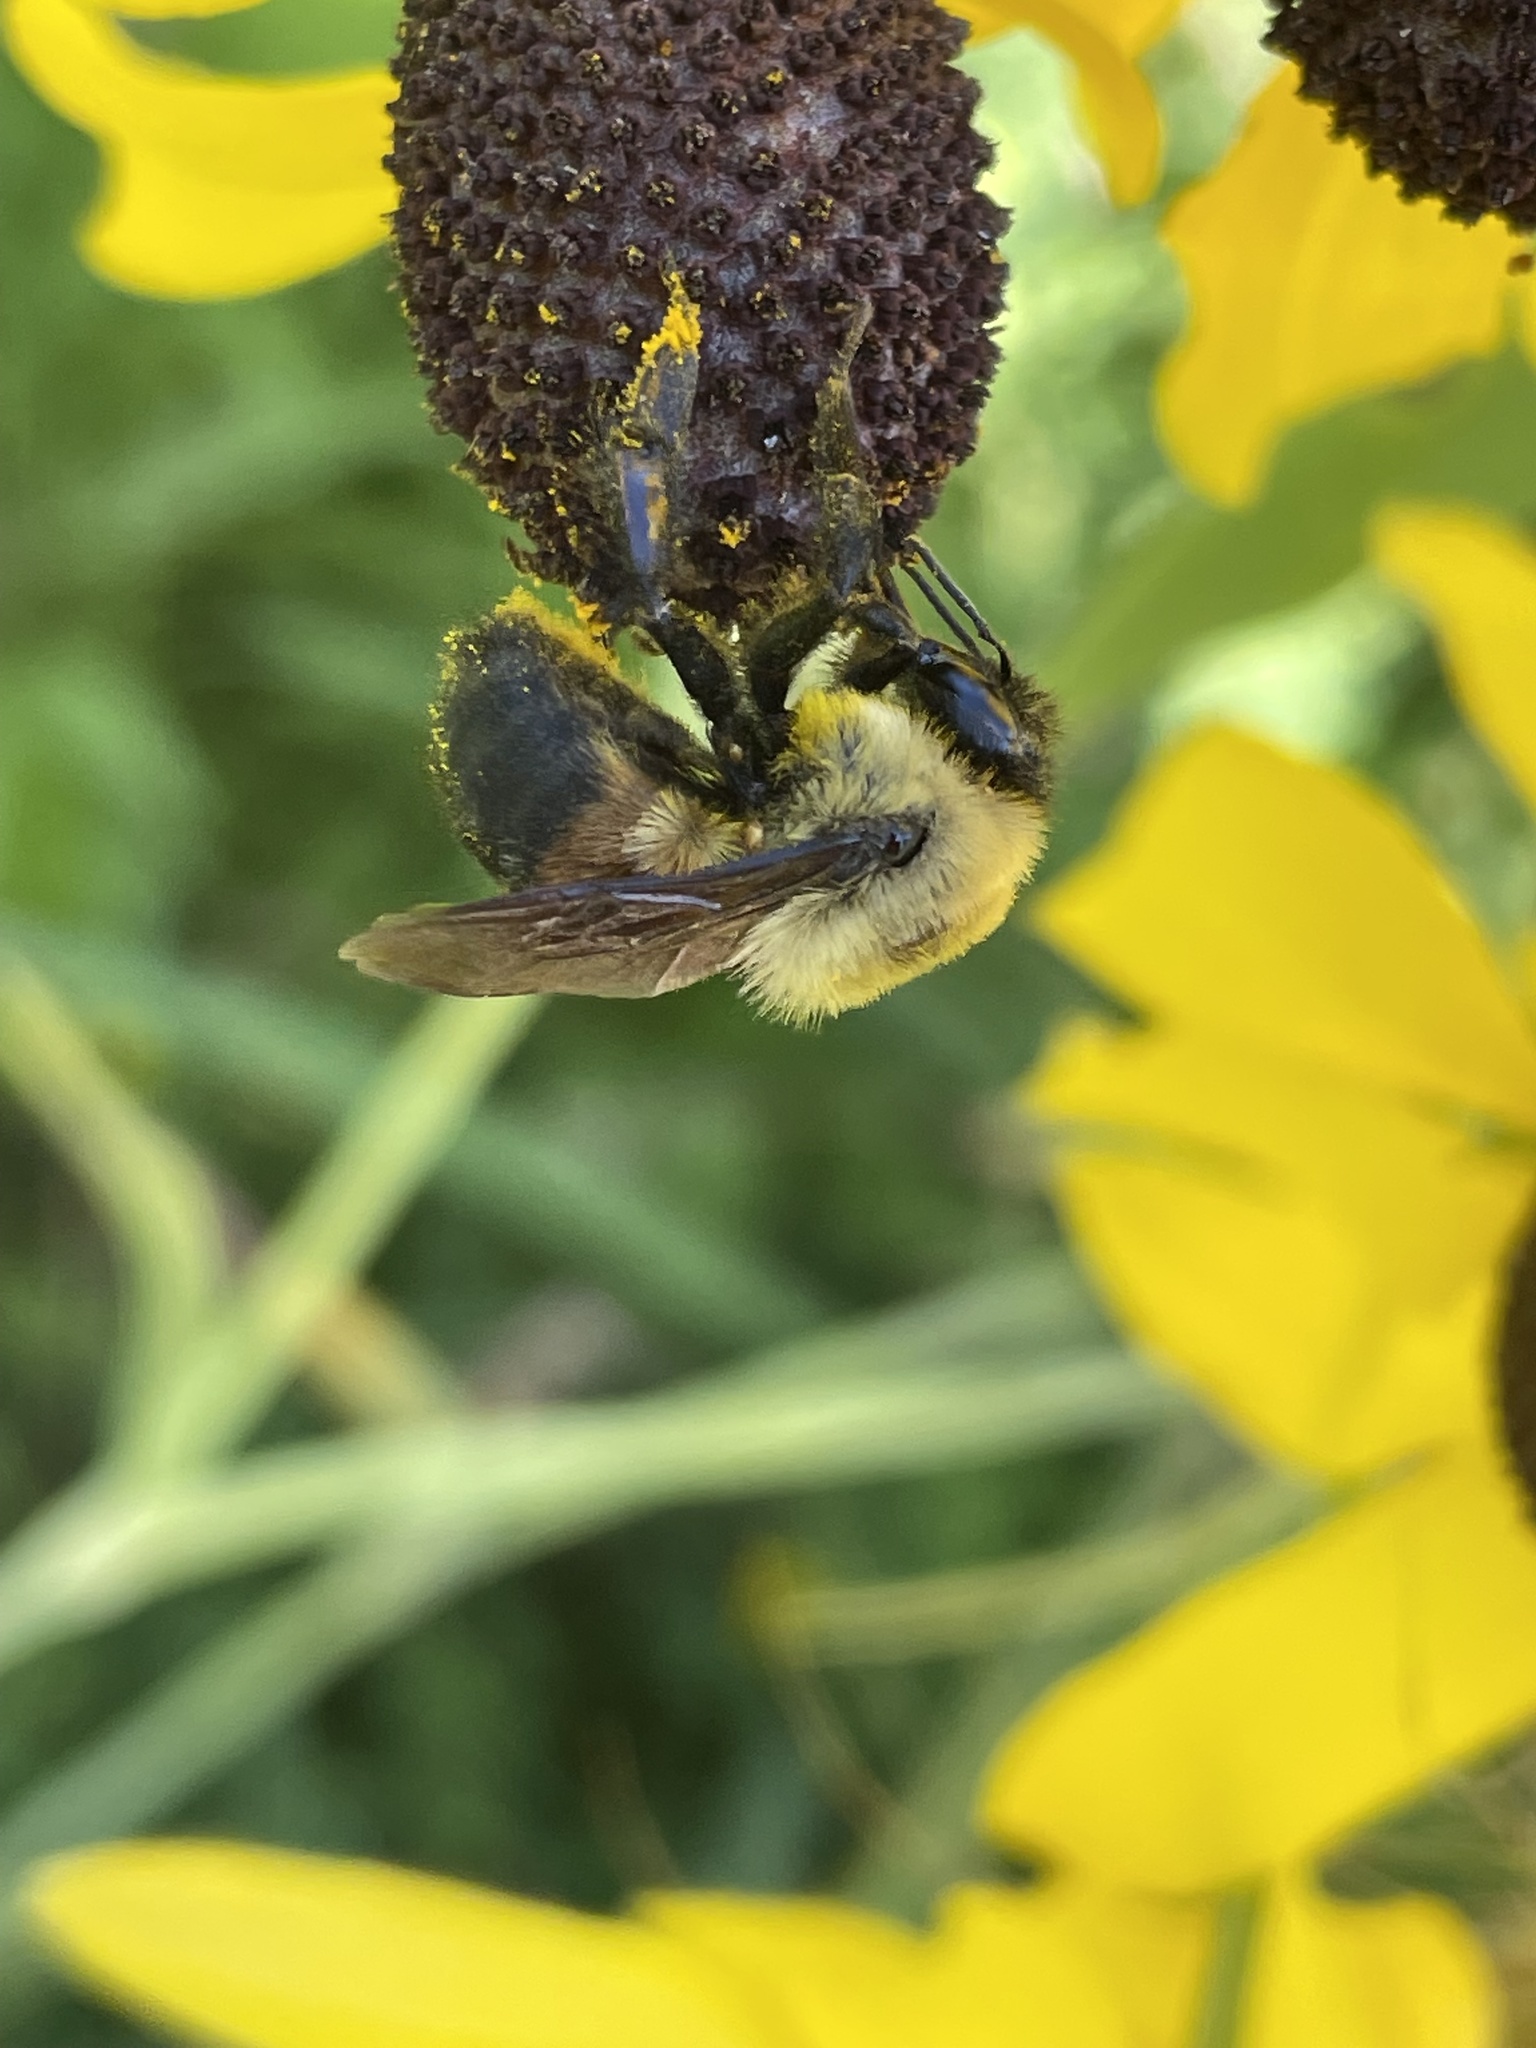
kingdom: Animalia
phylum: Arthropoda
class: Insecta
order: Hymenoptera
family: Apidae
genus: Bombus
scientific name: Bombus griseocollis
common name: Brown-belted bumble bee
